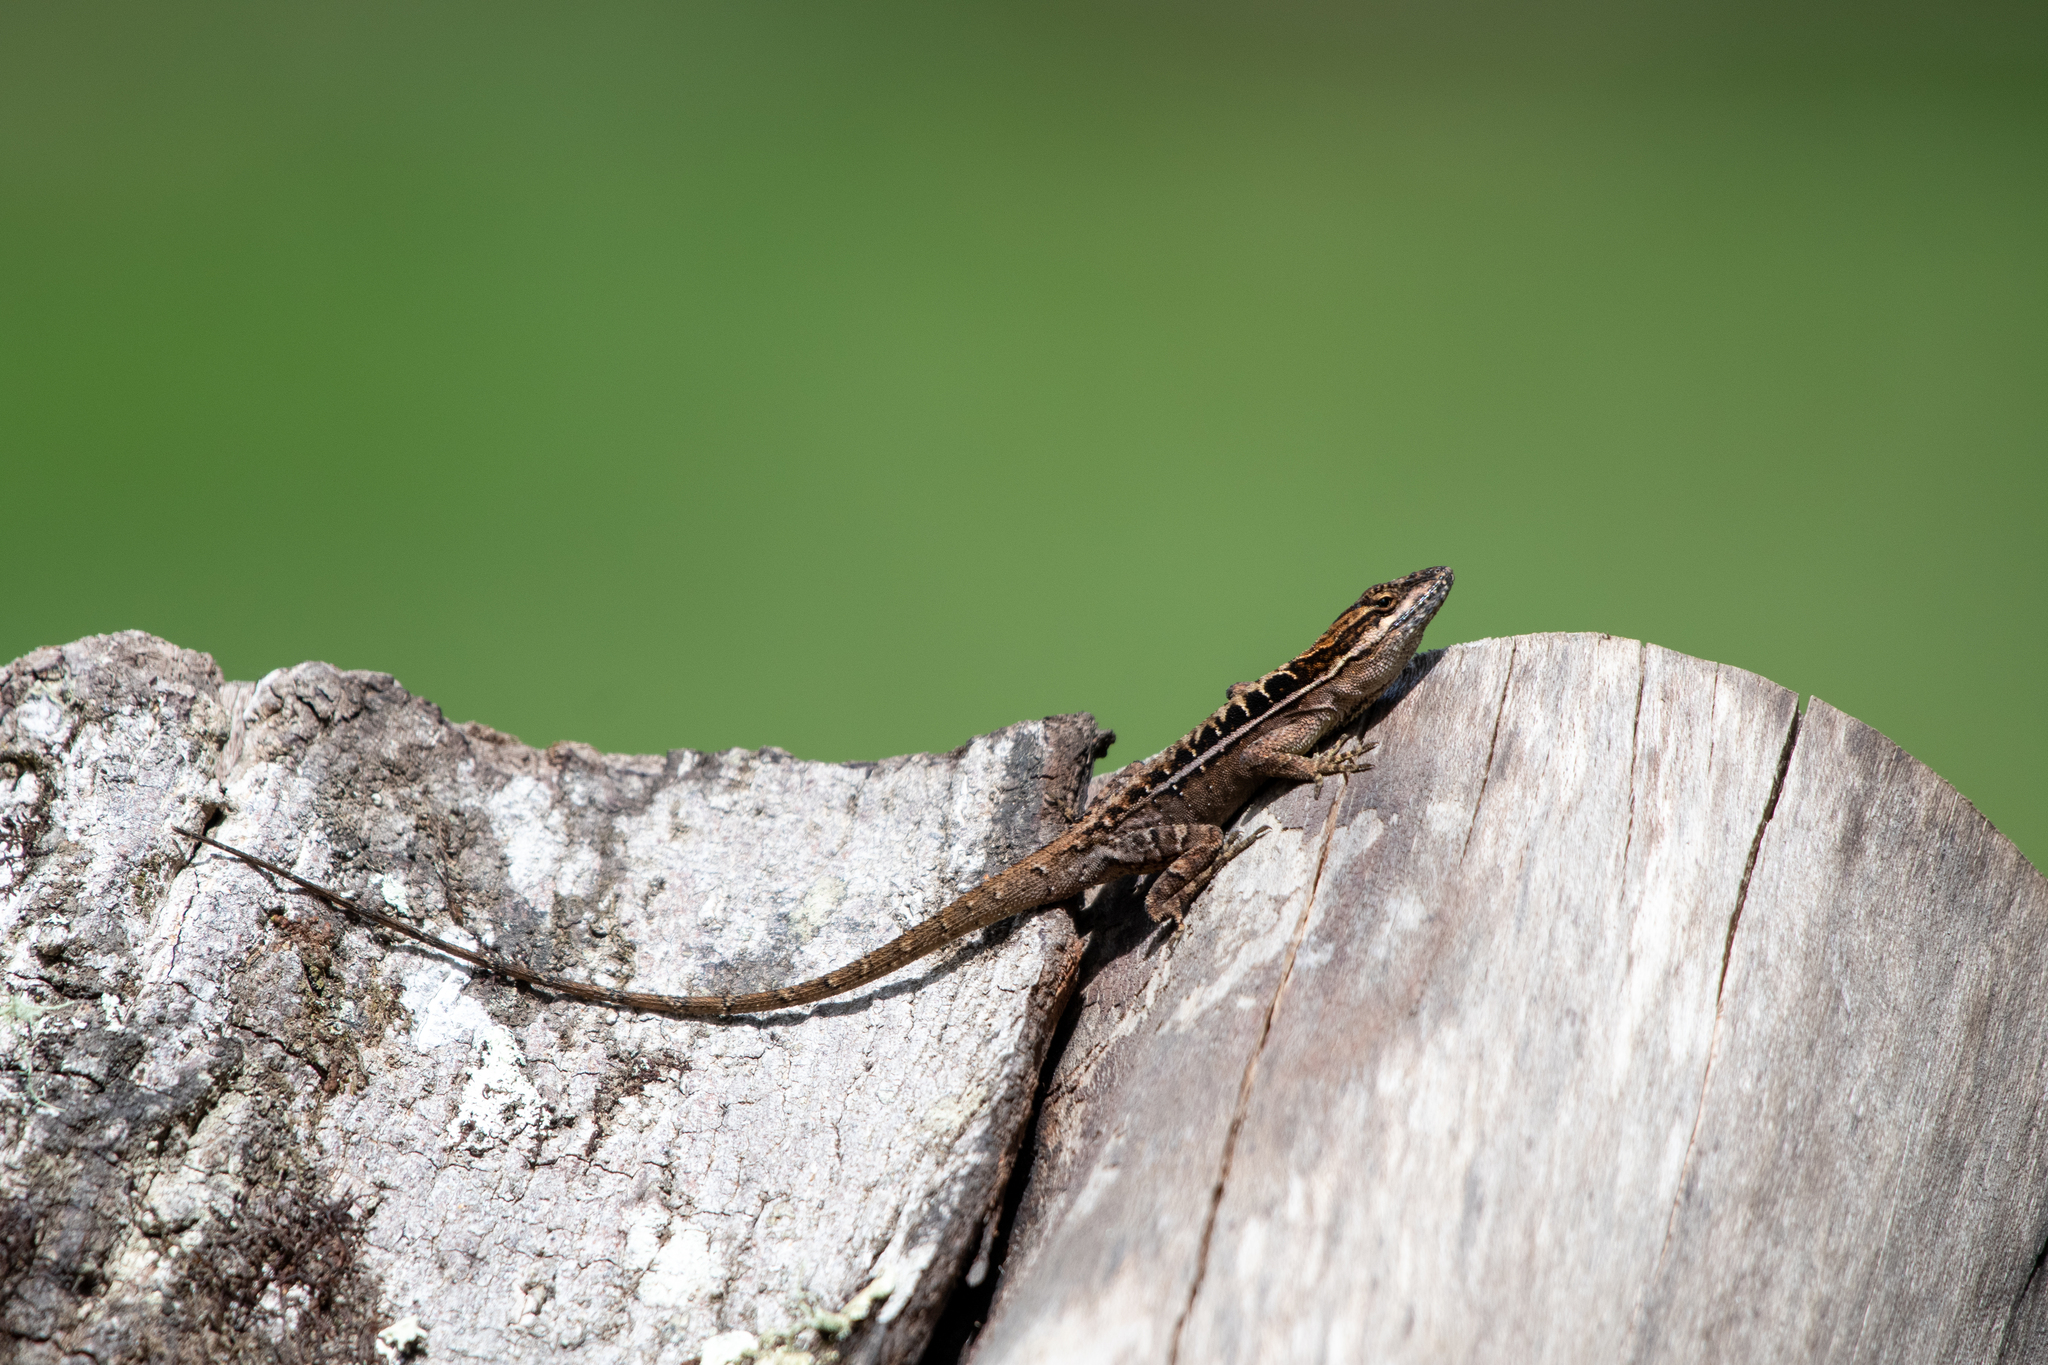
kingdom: Animalia
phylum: Chordata
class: Squamata
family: Dactyloidae
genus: Anolis
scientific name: Anolis caceresae
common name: Berta’s anole
